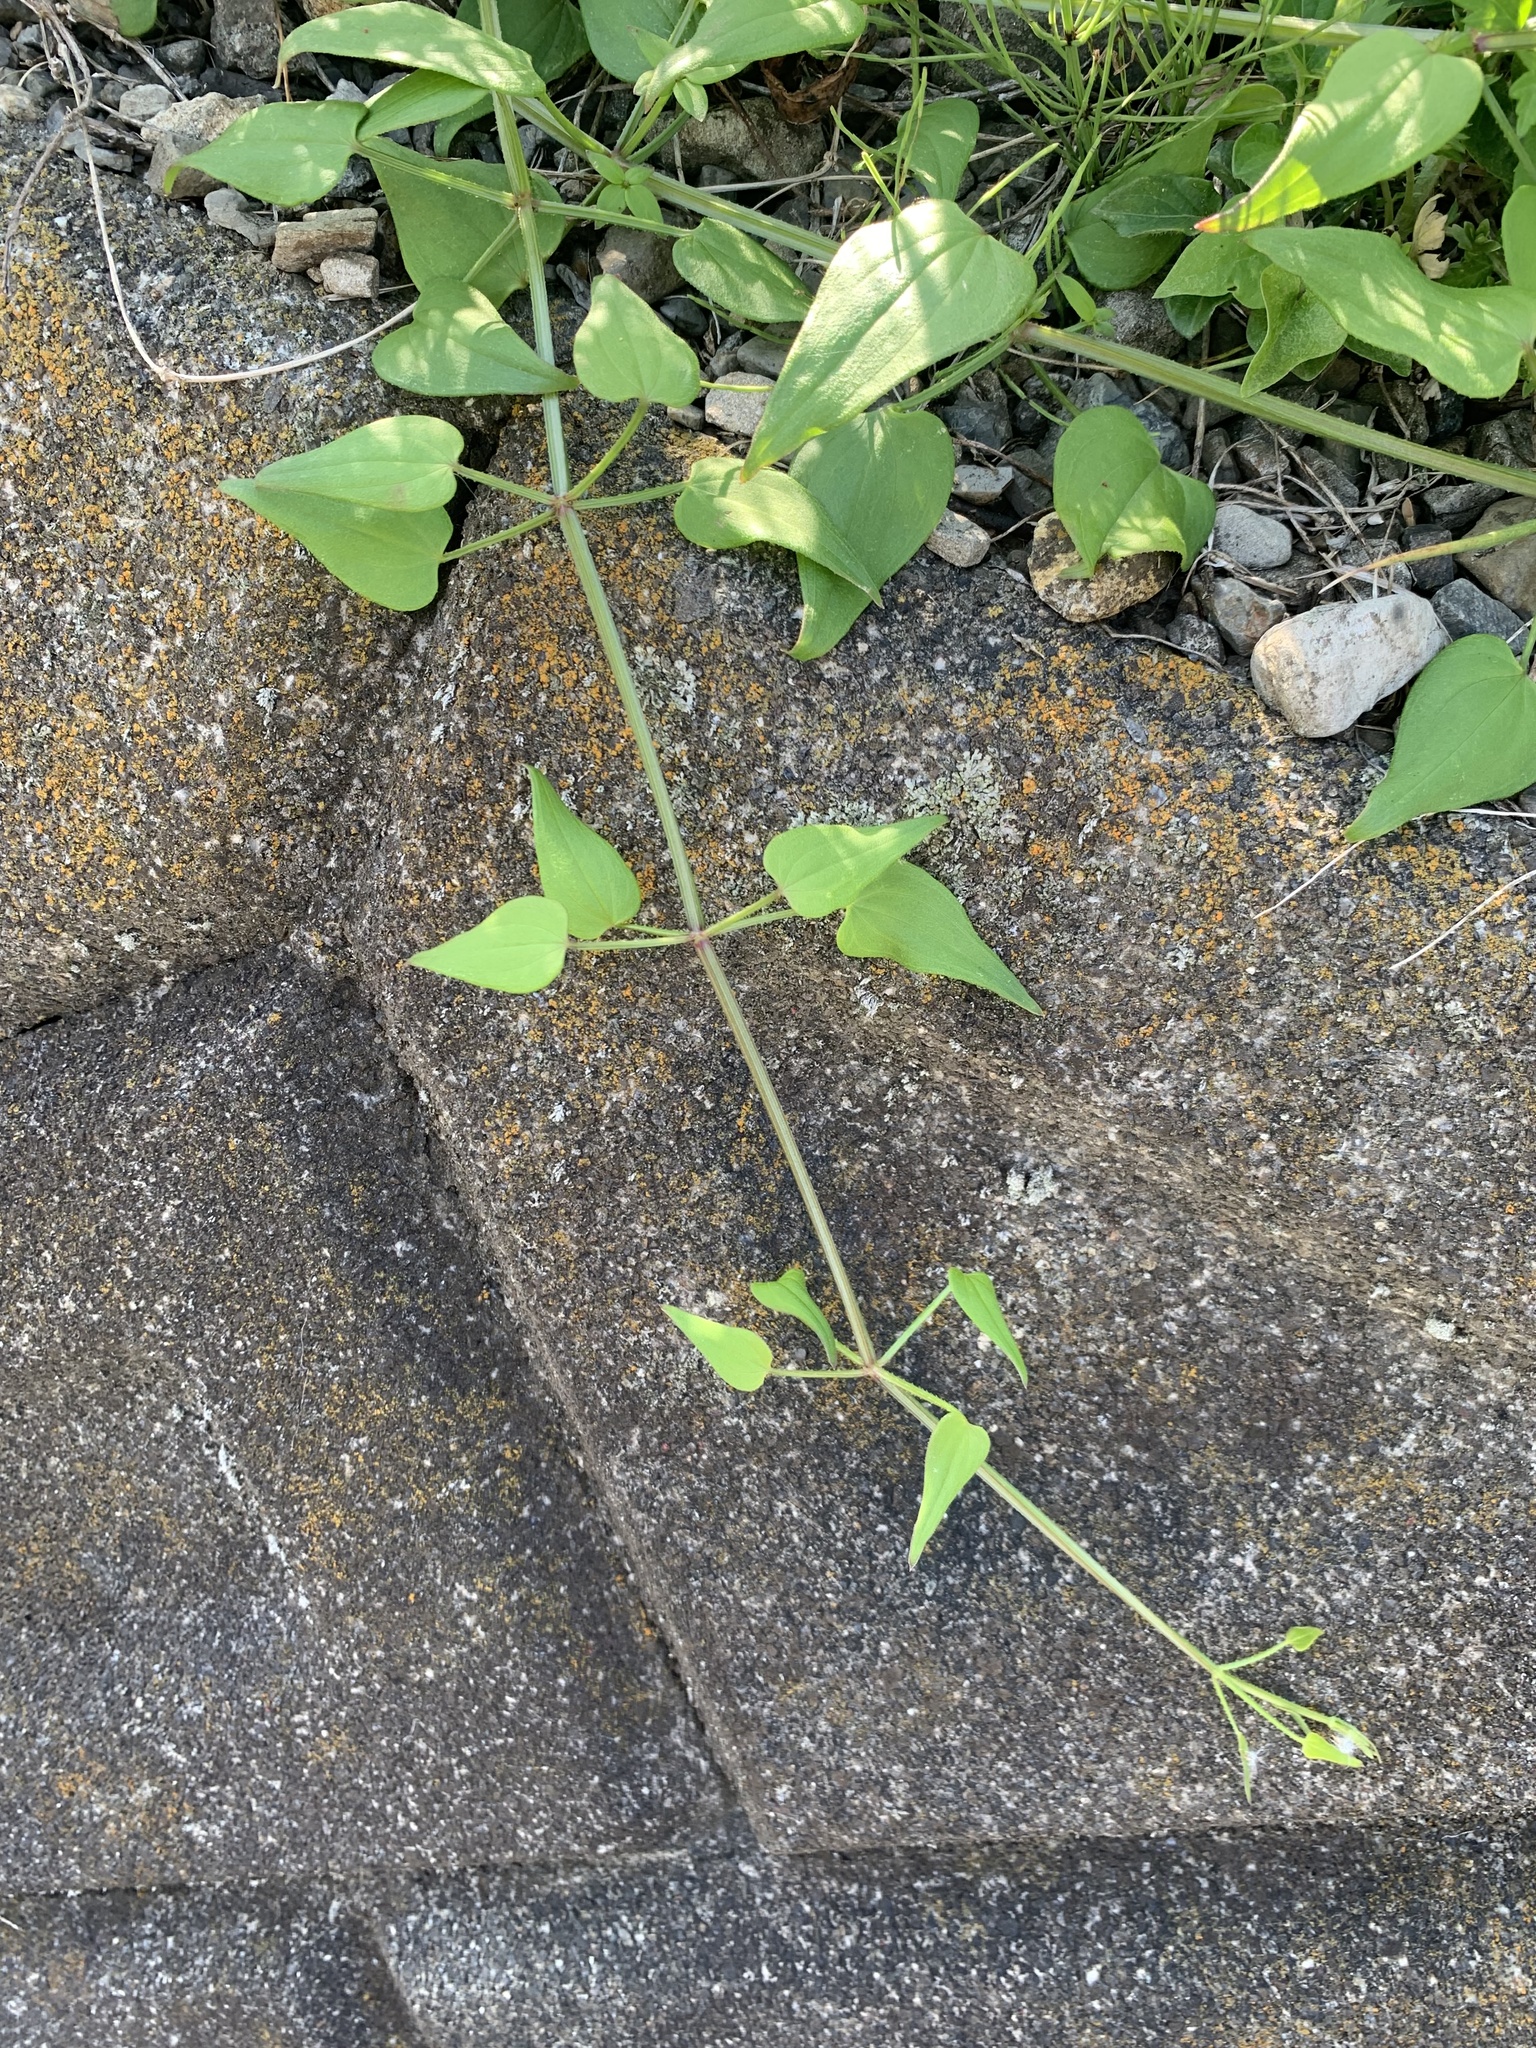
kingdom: Plantae
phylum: Tracheophyta
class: Magnoliopsida
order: Gentianales
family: Rubiaceae
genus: Rubia
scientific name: Rubia argyi
